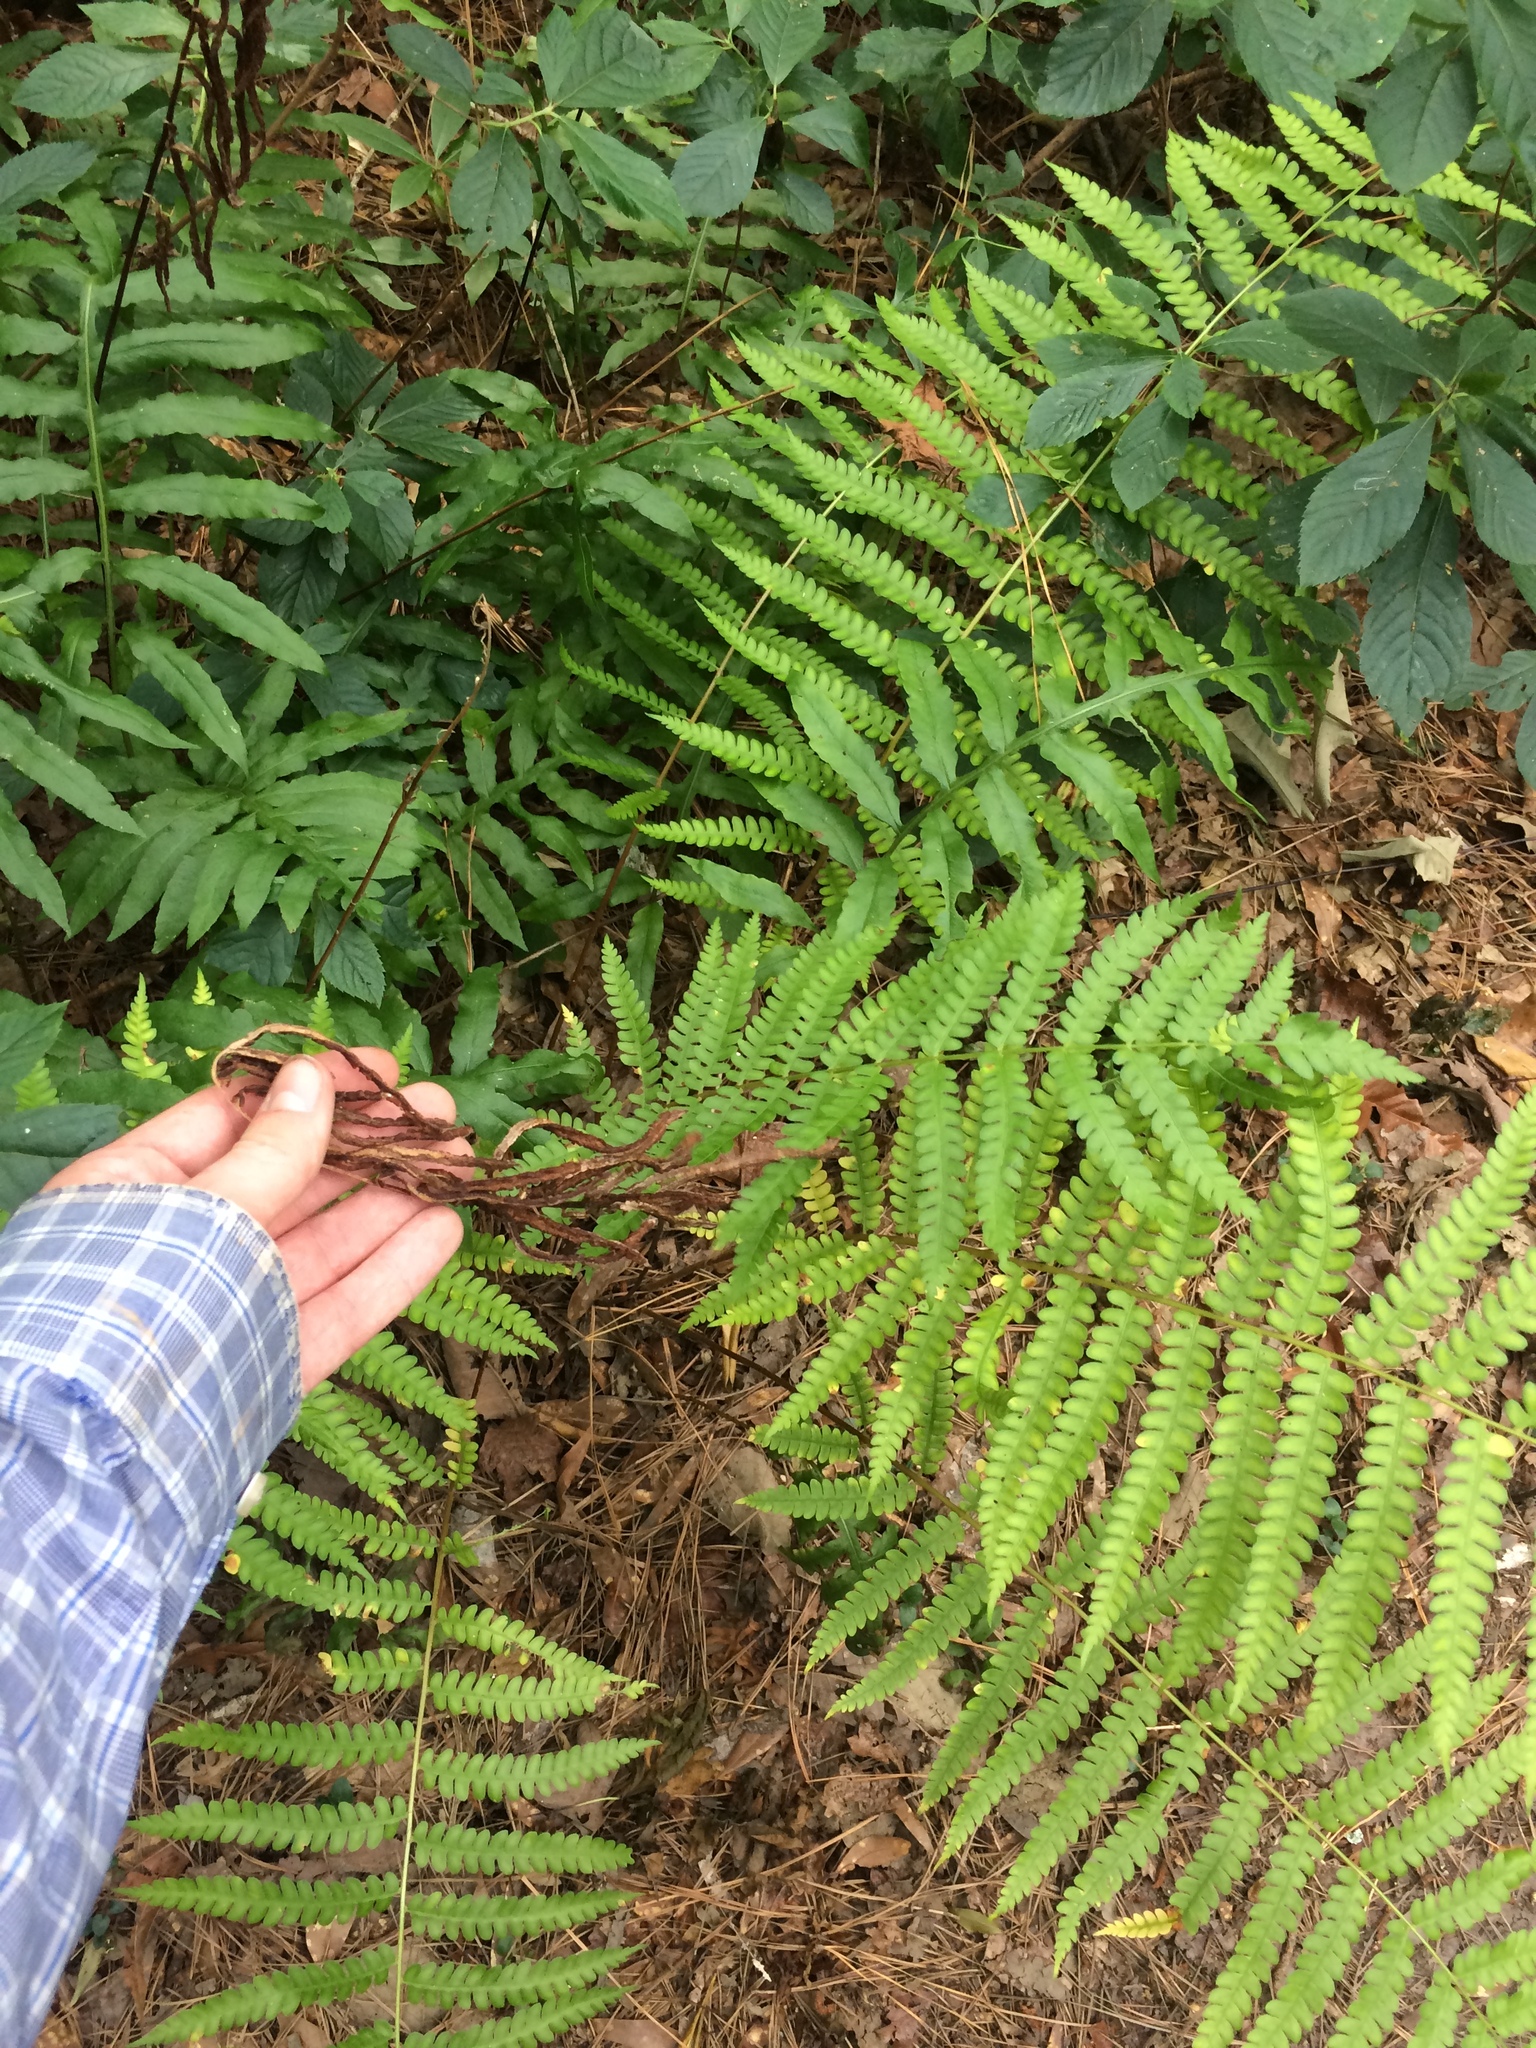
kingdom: Plantae
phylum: Tracheophyta
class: Polypodiopsida
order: Osmundales
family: Osmundaceae
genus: Osmundastrum
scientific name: Osmundastrum cinnamomeum
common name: Cinnamon fern
